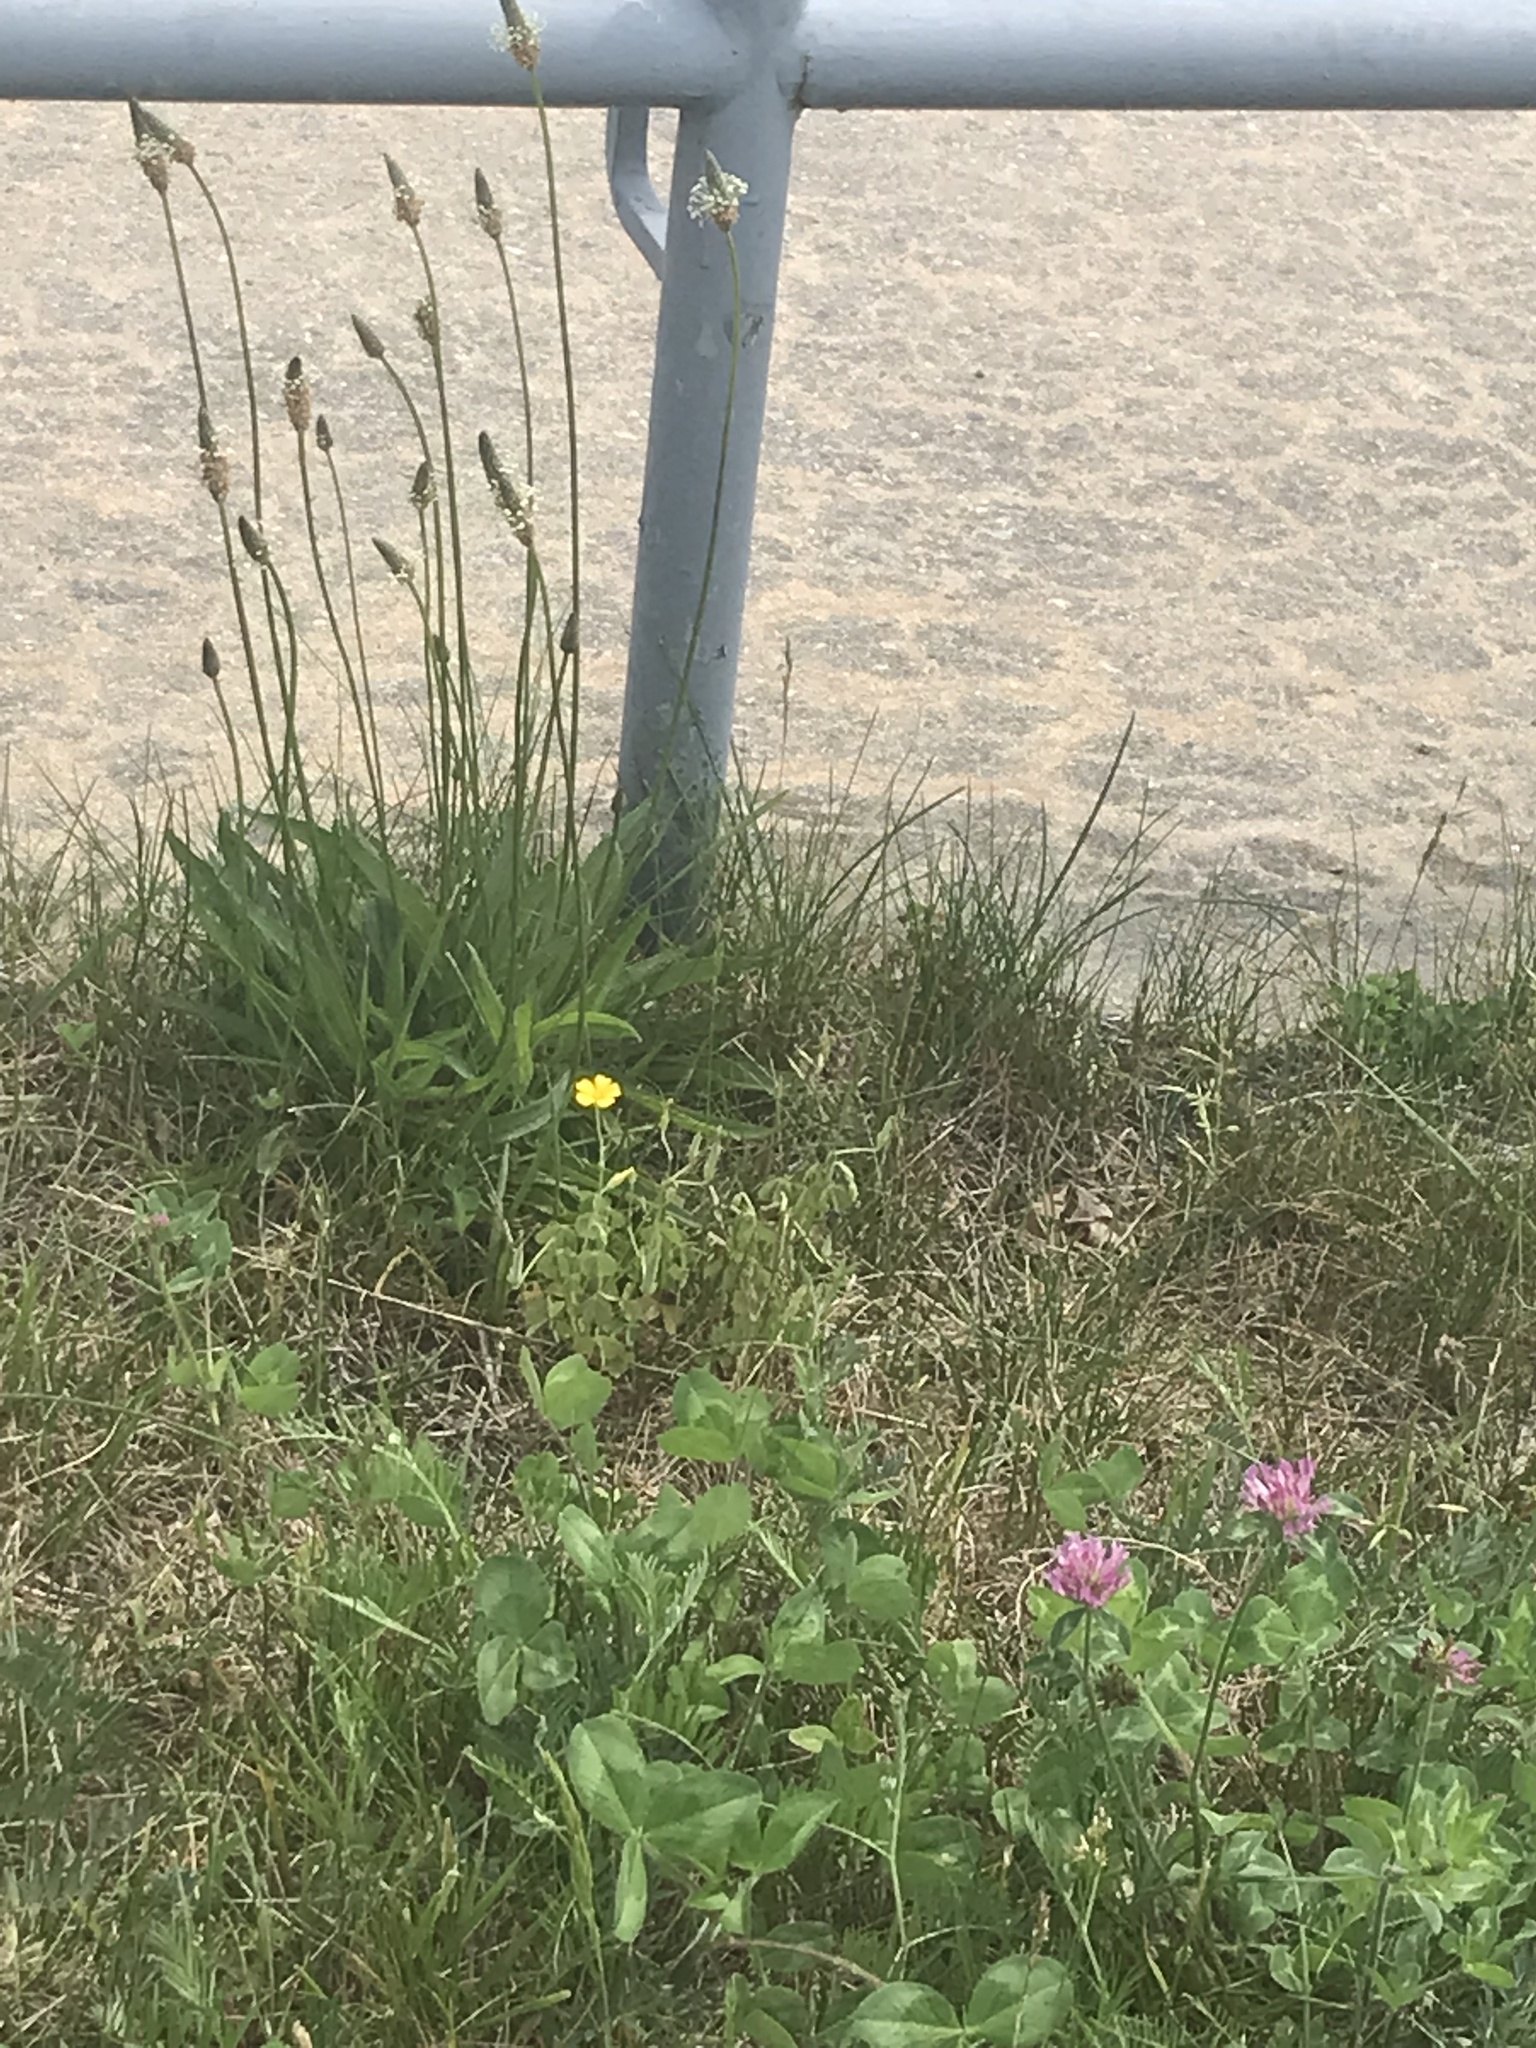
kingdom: Plantae
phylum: Tracheophyta
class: Magnoliopsida
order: Lamiales
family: Plantaginaceae
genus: Plantago
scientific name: Plantago lanceolata
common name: Ribwort plantain
